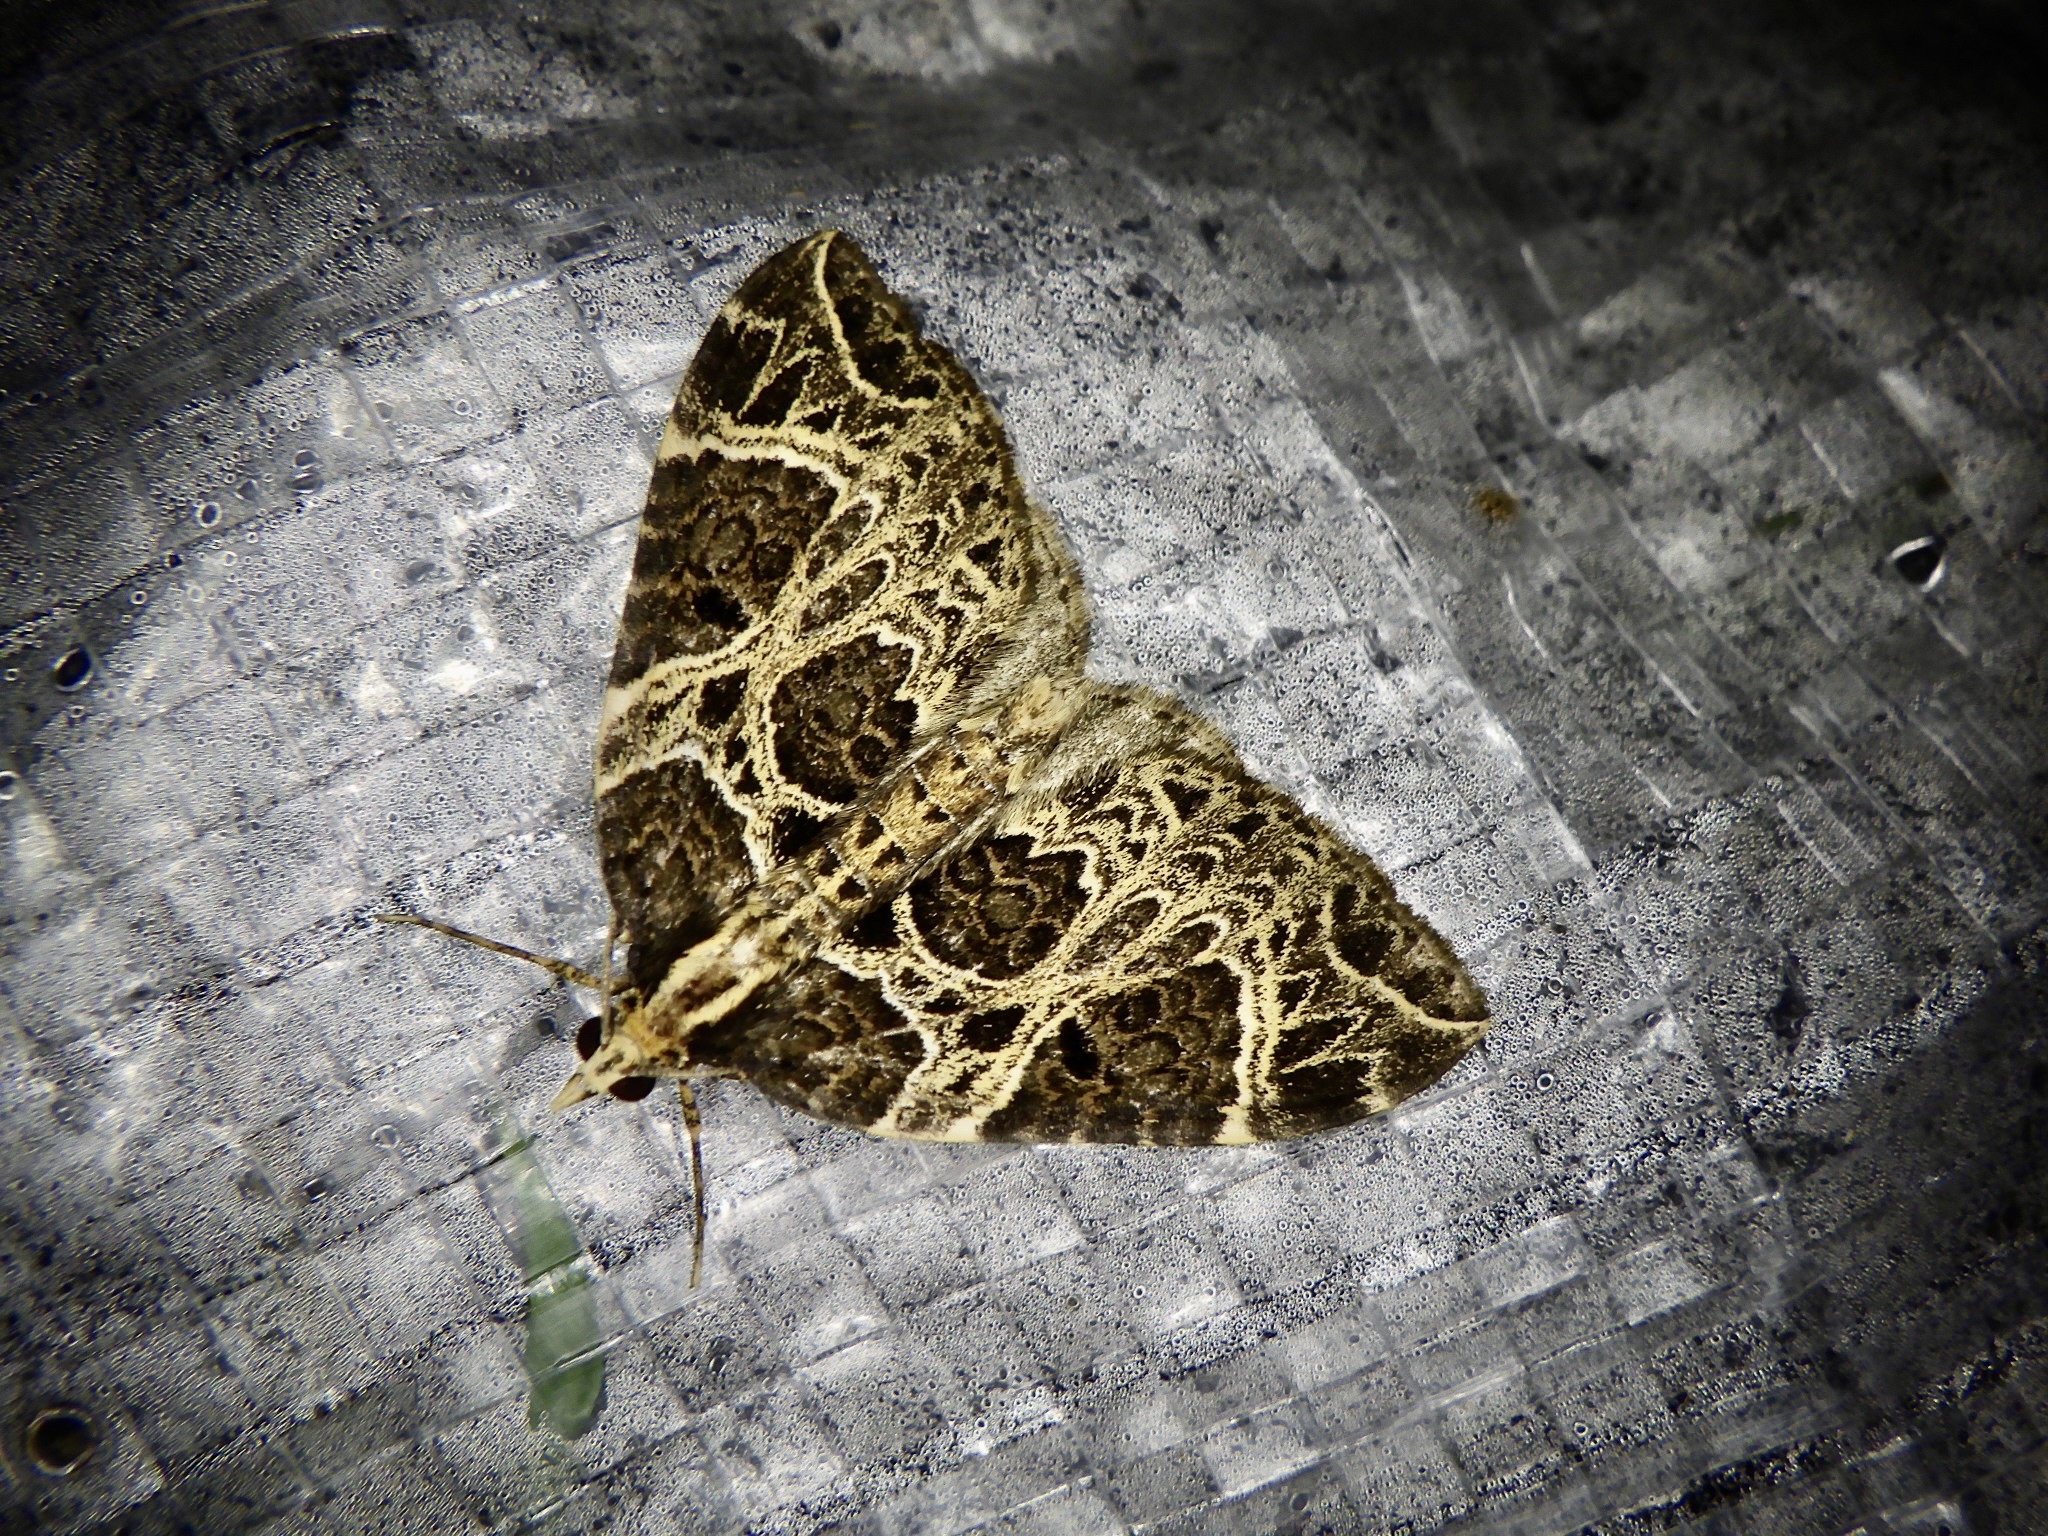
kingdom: Animalia
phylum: Arthropoda
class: Insecta
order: Lepidoptera
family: Geometridae
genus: Eustroma
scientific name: Eustroma melancholica
